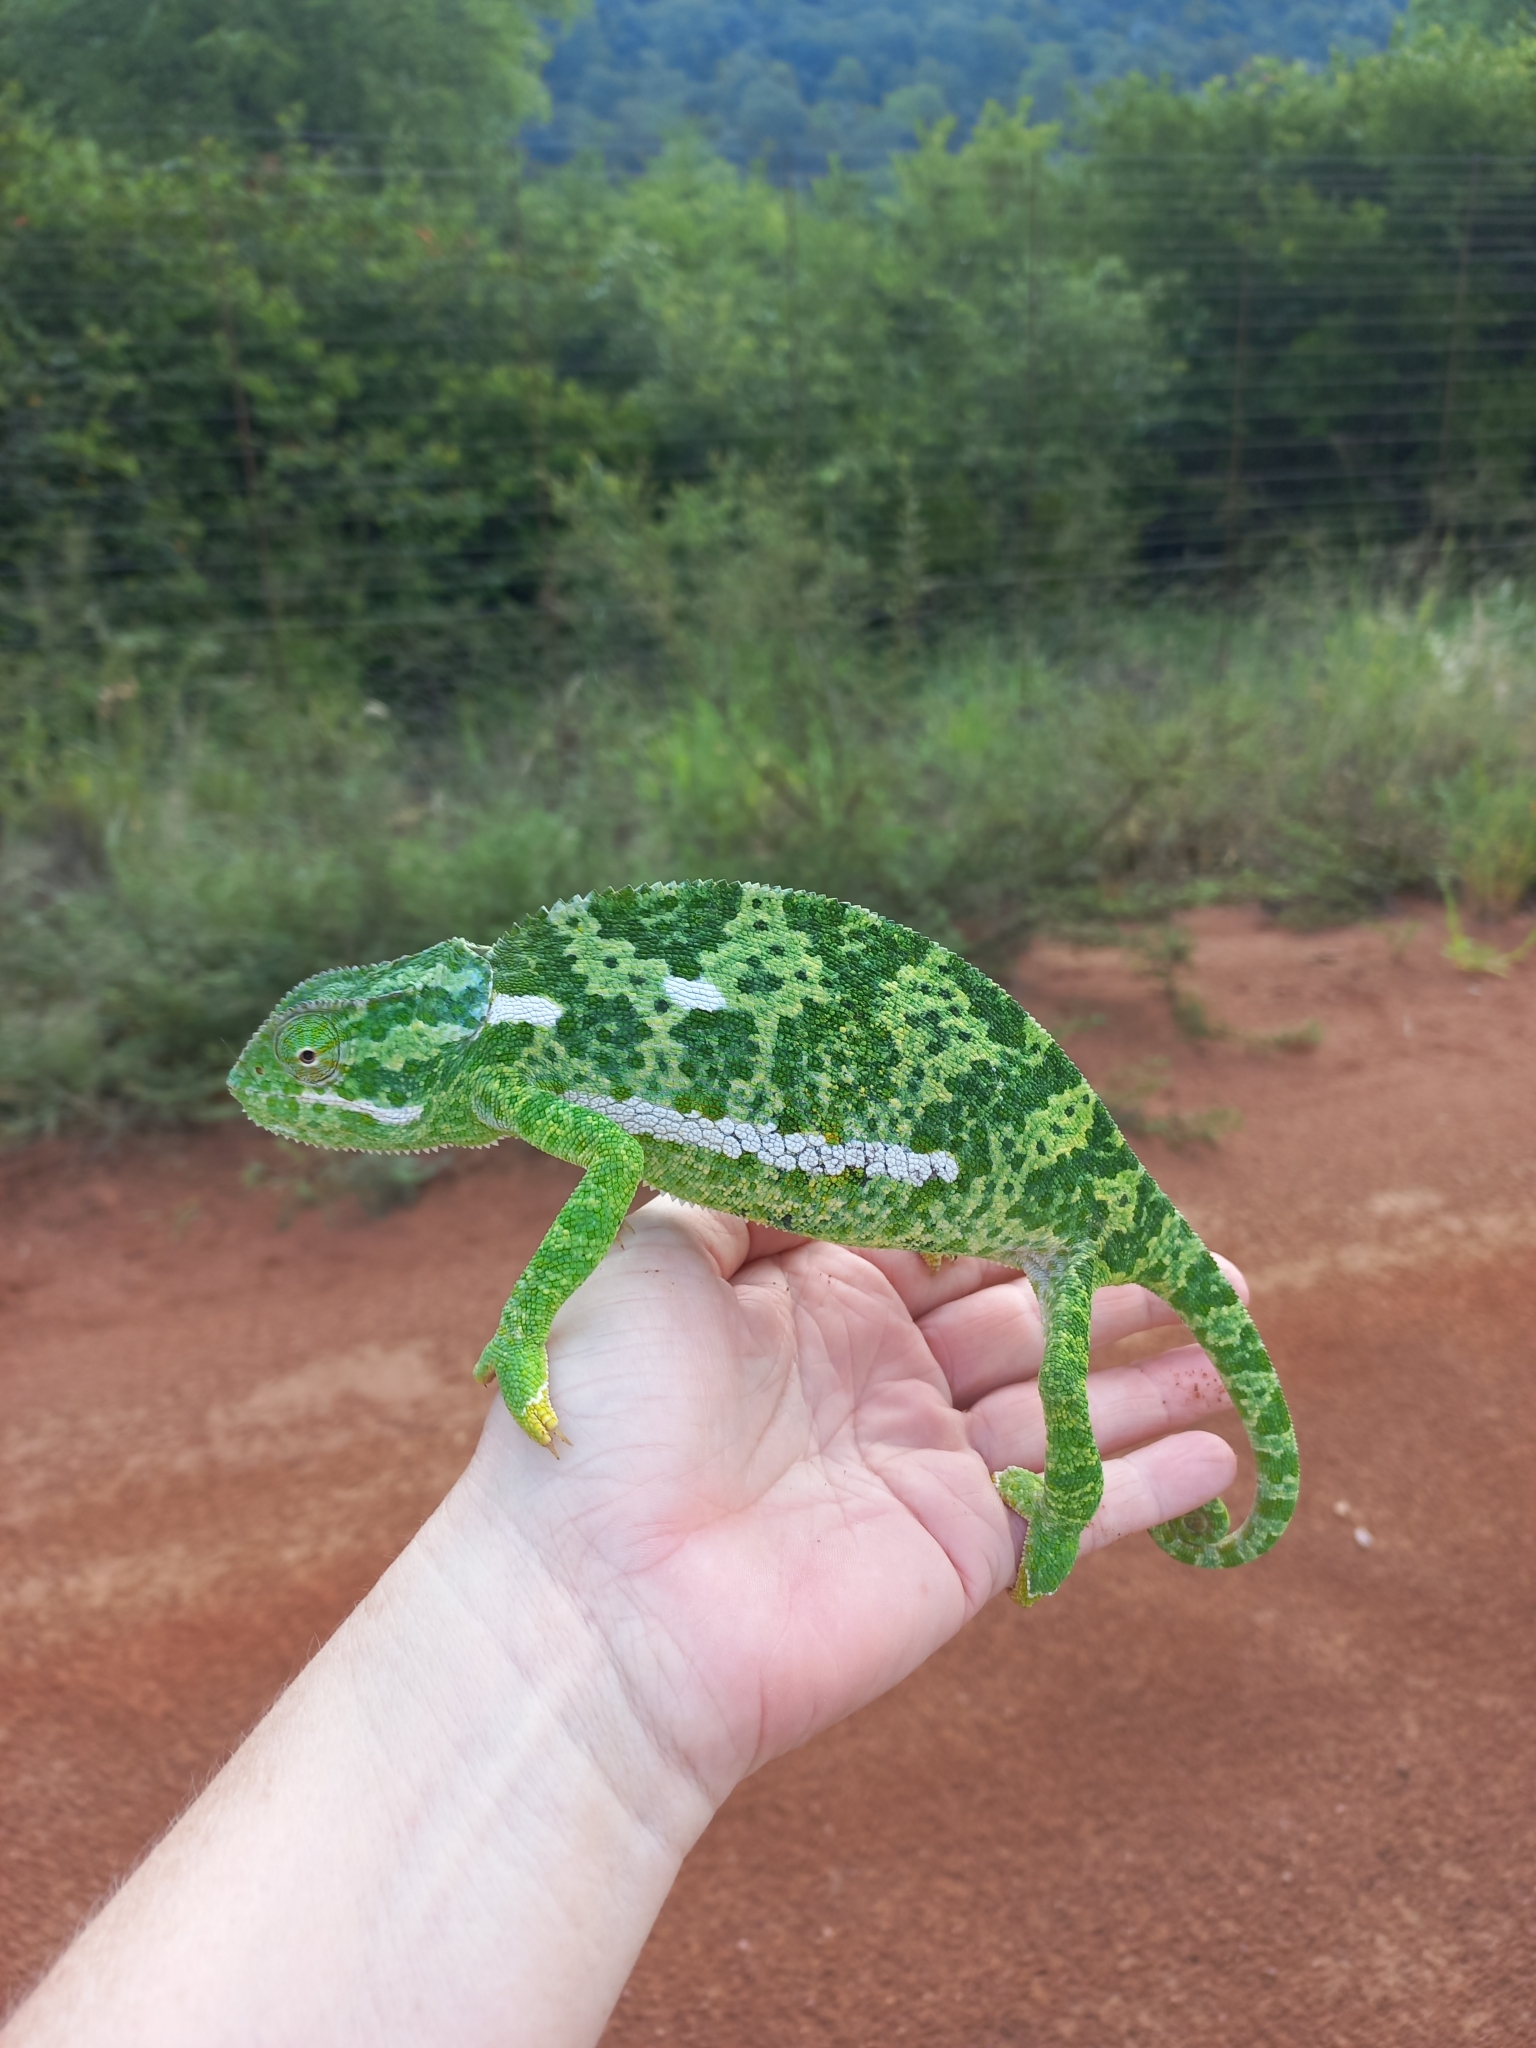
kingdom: Animalia
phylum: Chordata
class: Squamata
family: Chamaeleonidae
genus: Chamaeleo
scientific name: Chamaeleo dilepis
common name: Flapneck chameleon
